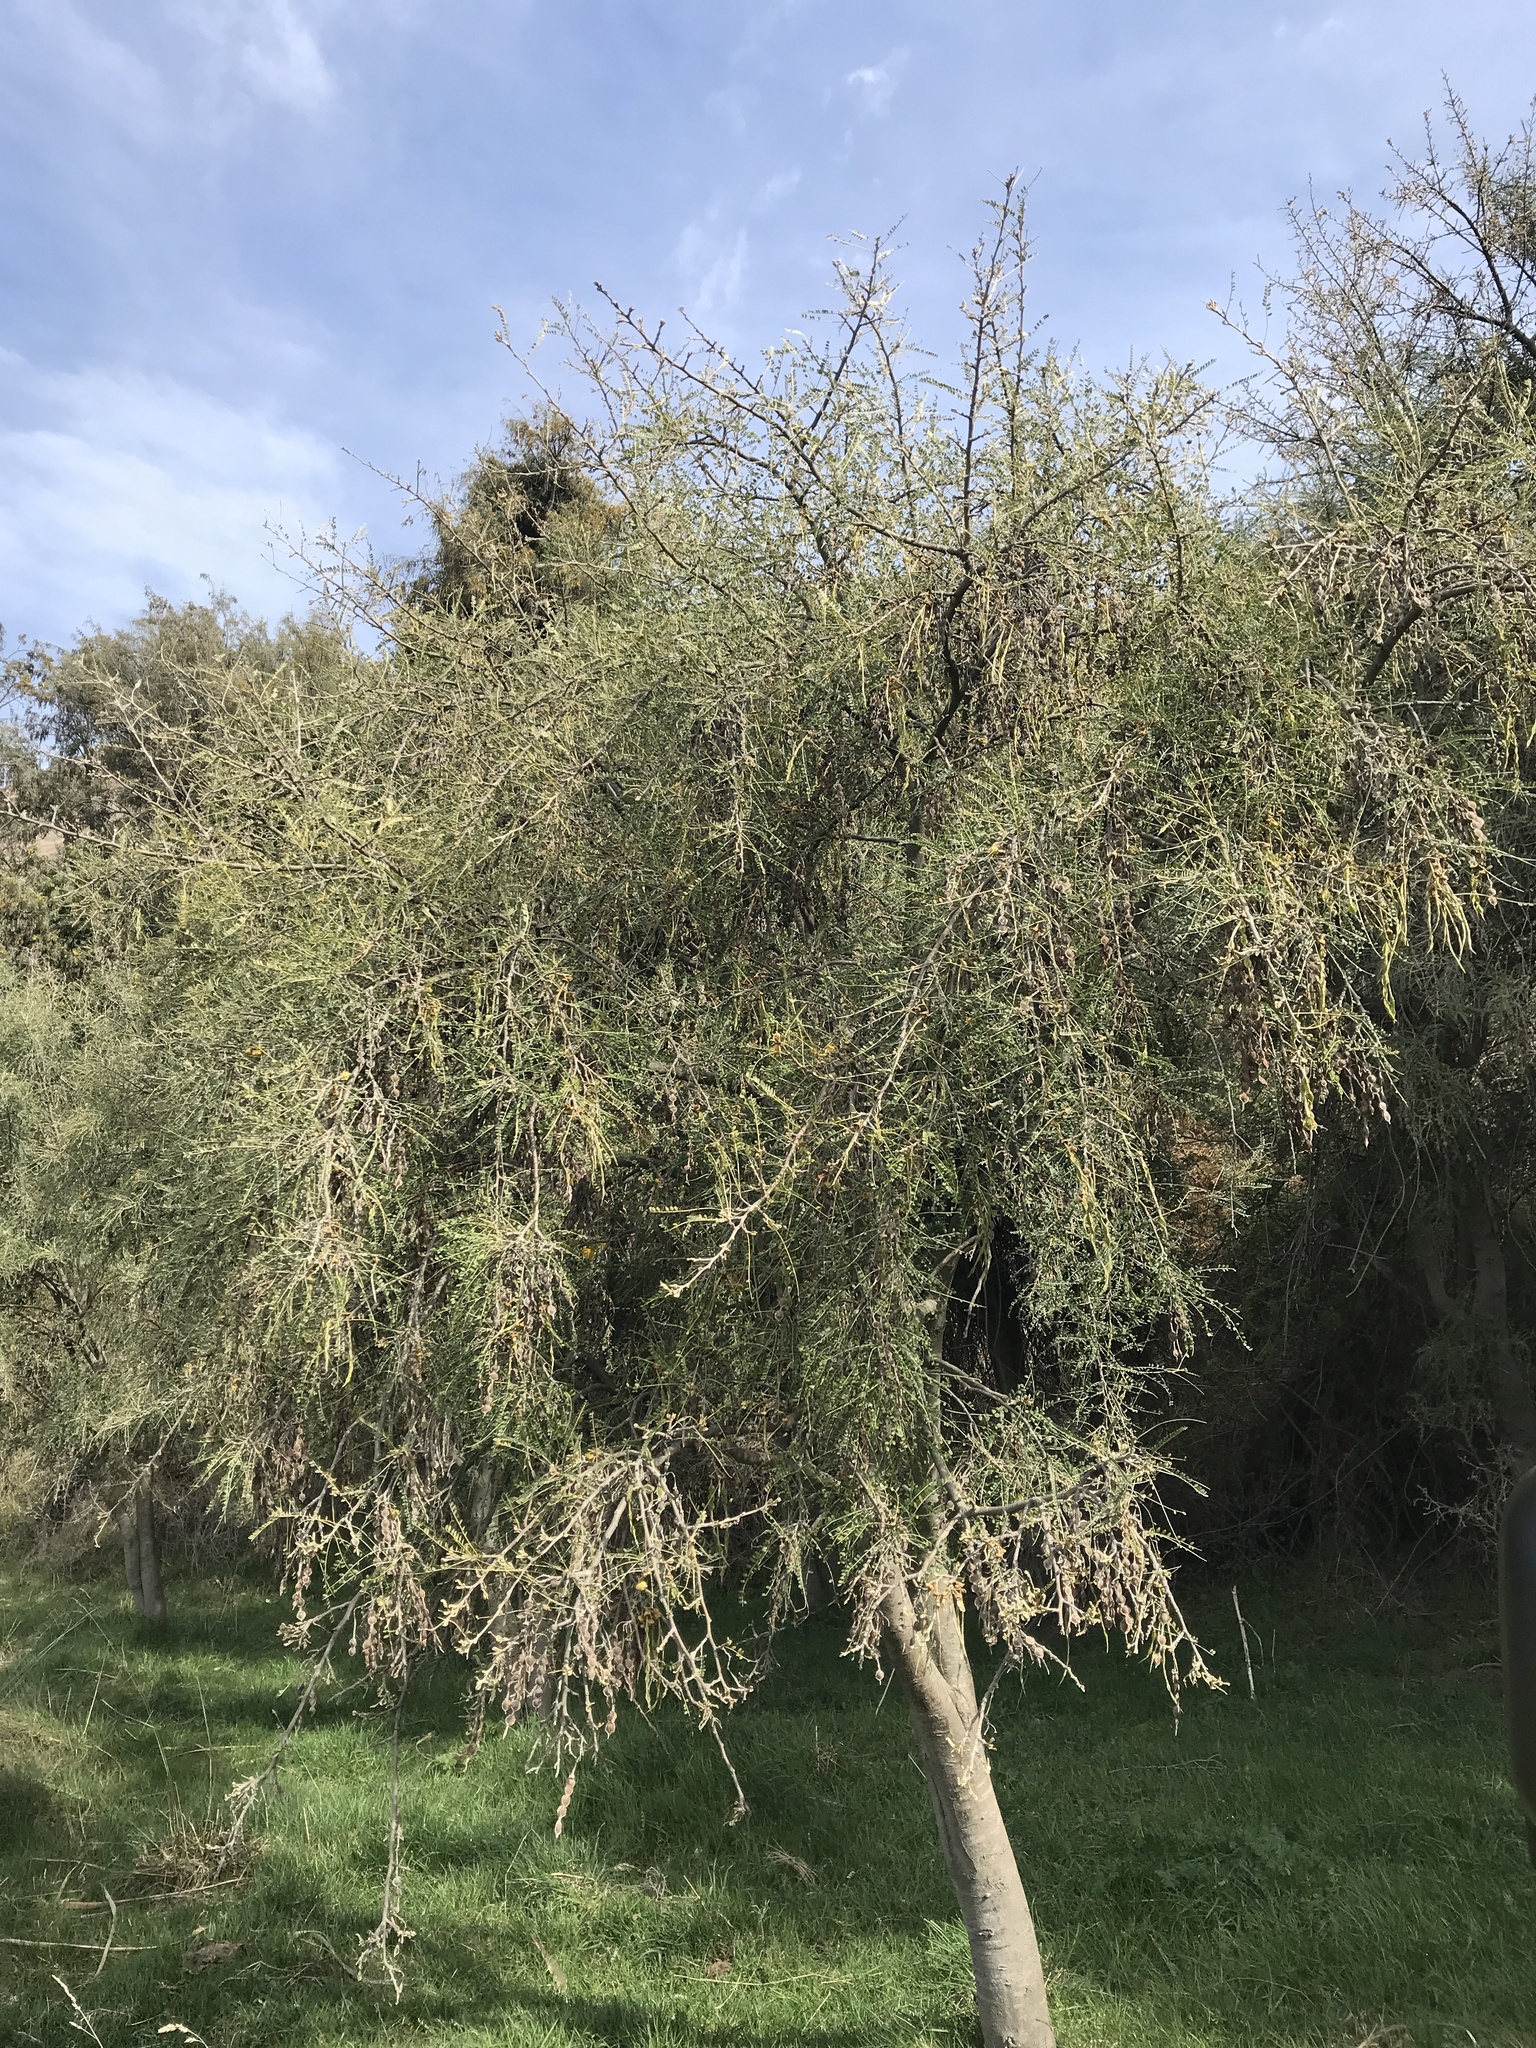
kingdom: Plantae
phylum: Tracheophyta
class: Magnoliopsida
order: Fabales
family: Fabaceae
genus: Sophora
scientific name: Sophora microphylla
